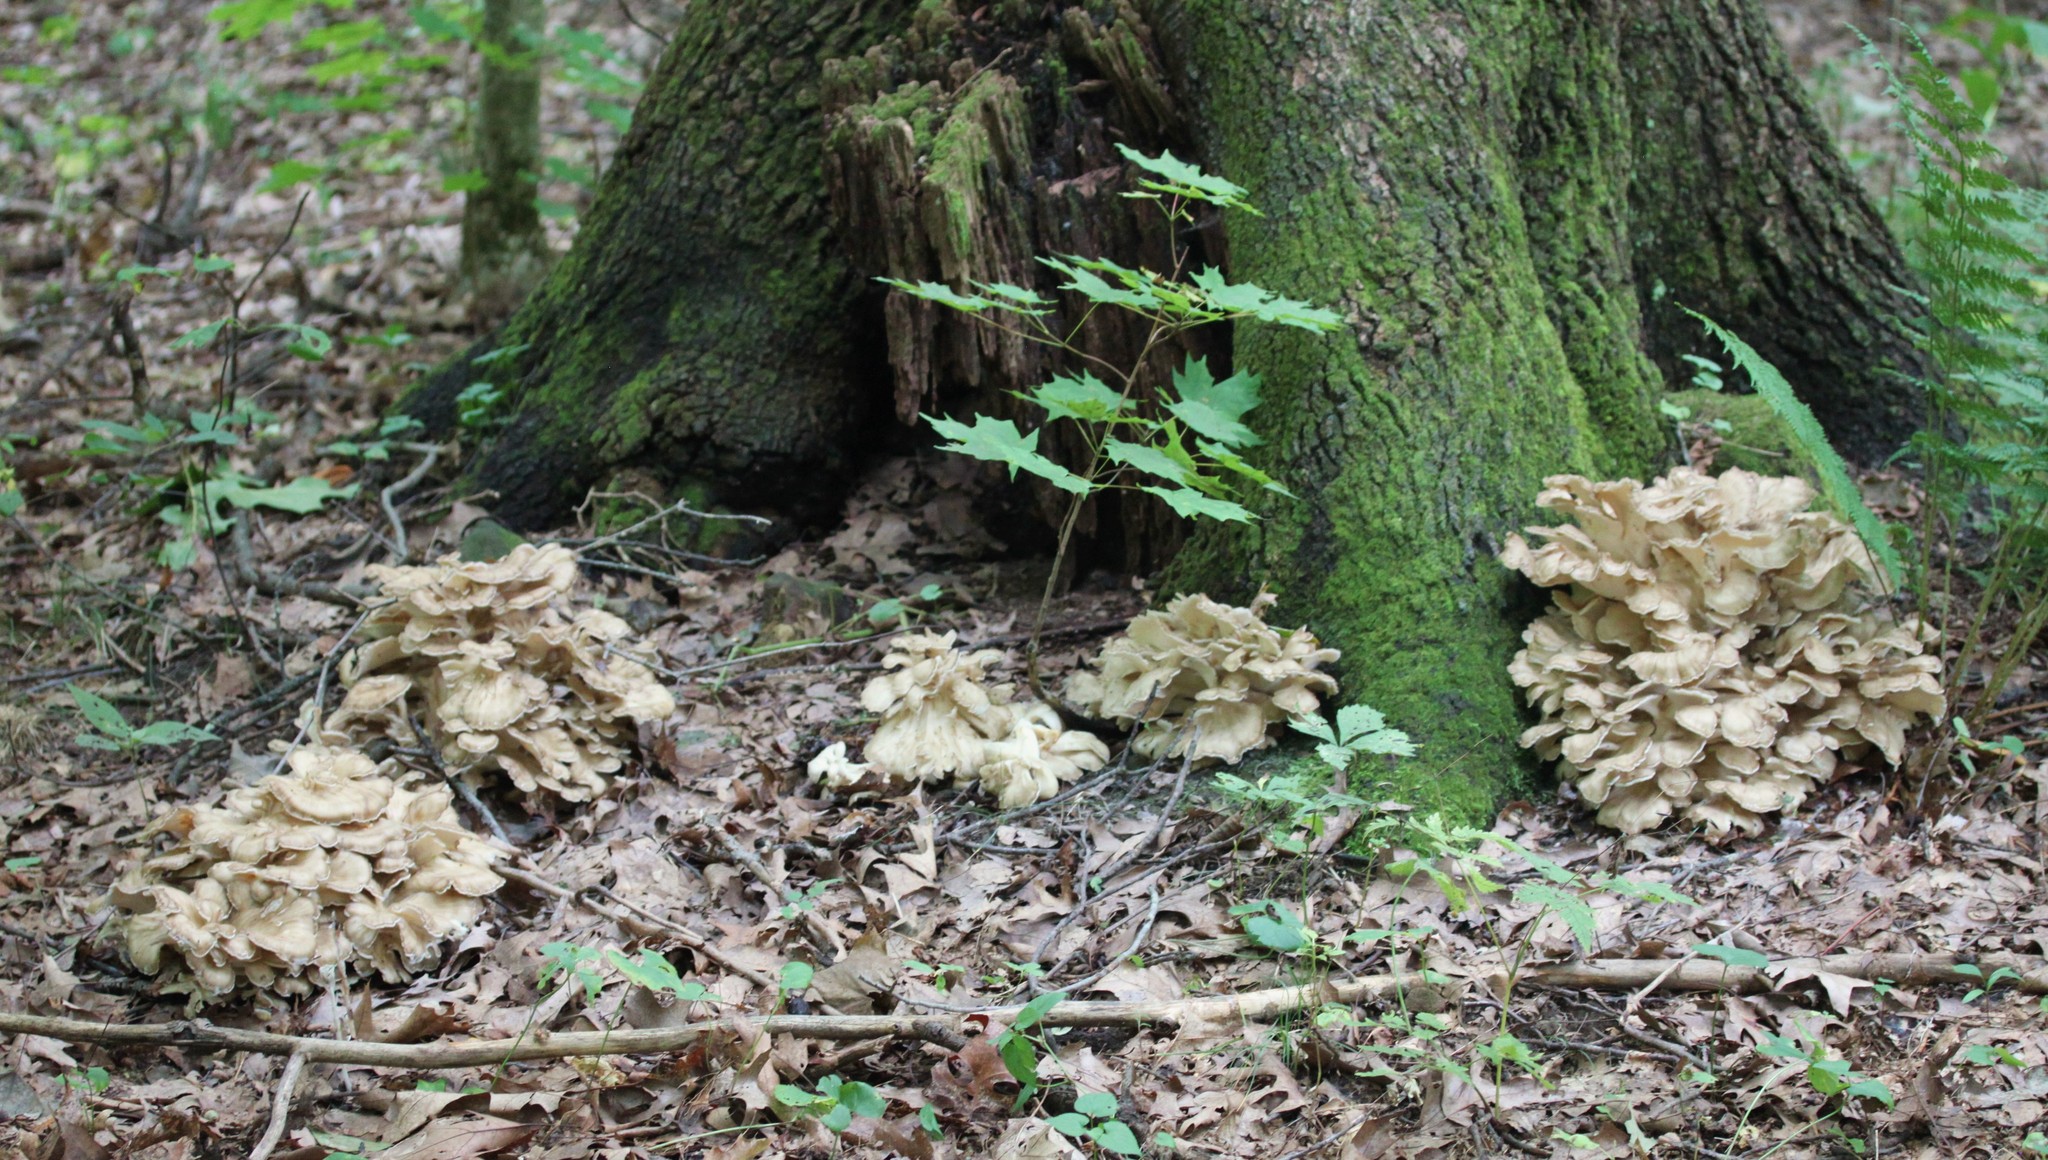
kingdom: Fungi
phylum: Basidiomycota
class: Agaricomycetes
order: Polyporales
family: Grifolaceae
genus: Grifola
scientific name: Grifola frondosa
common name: Hen of the woods
